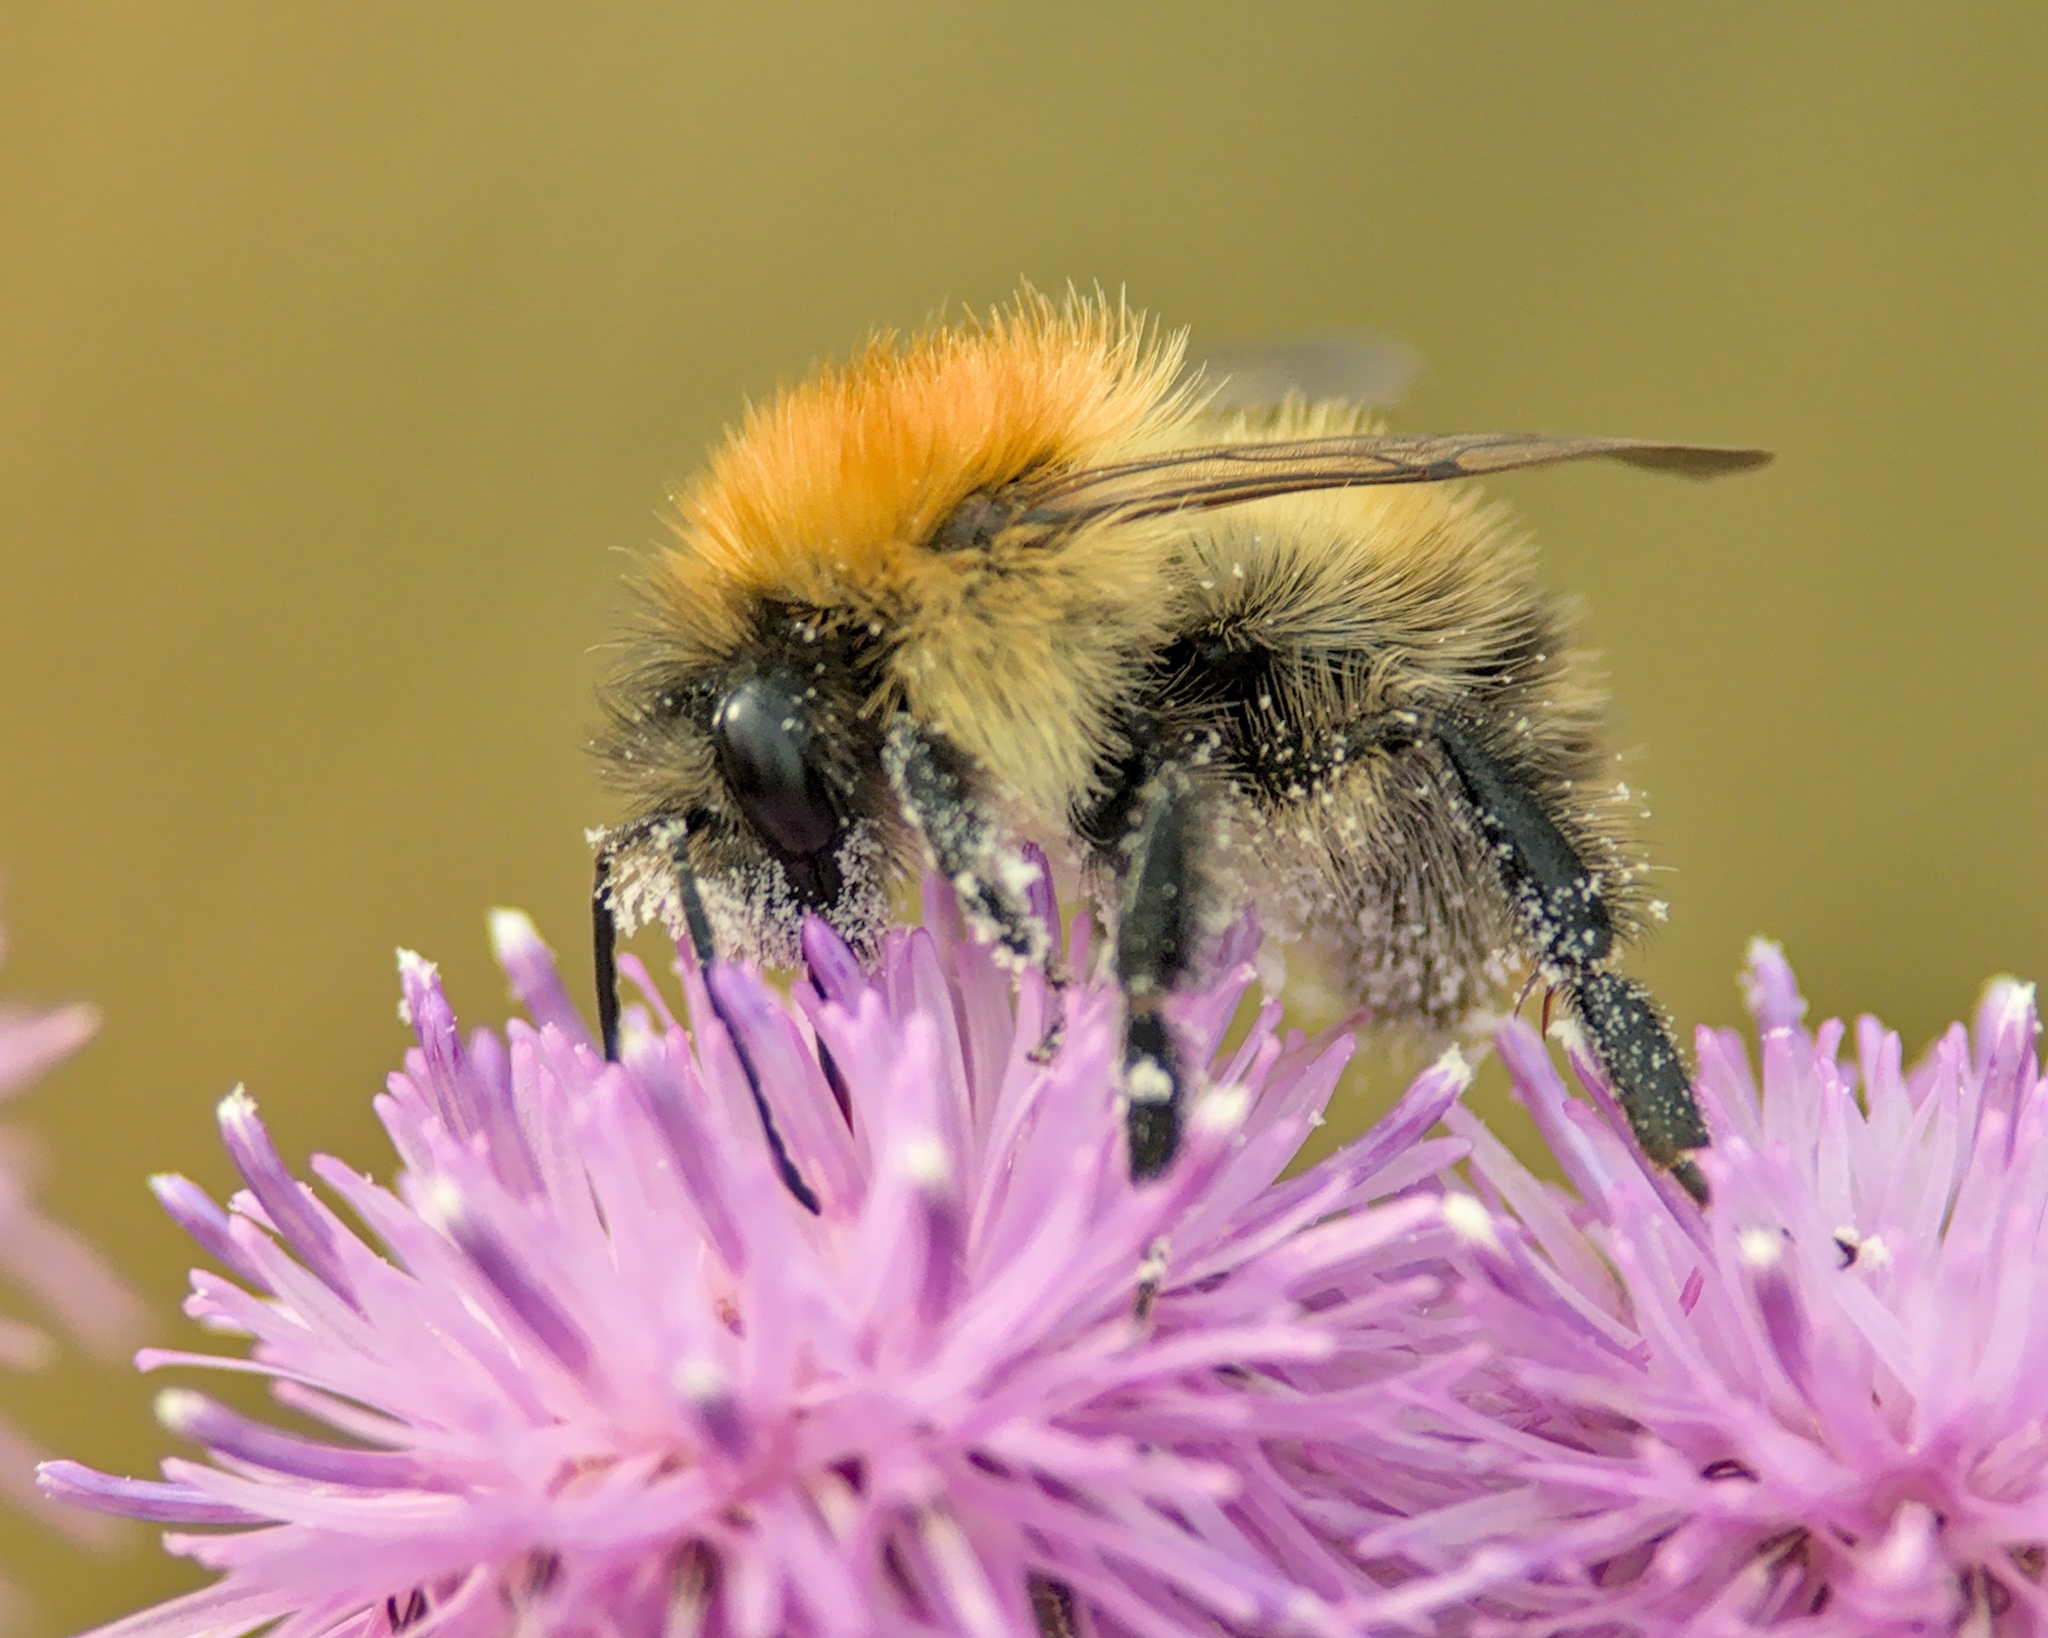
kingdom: Animalia
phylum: Arthropoda
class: Insecta
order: Hymenoptera
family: Apidae
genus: Bombus
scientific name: Bombus pascuorum
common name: Common carder bee
